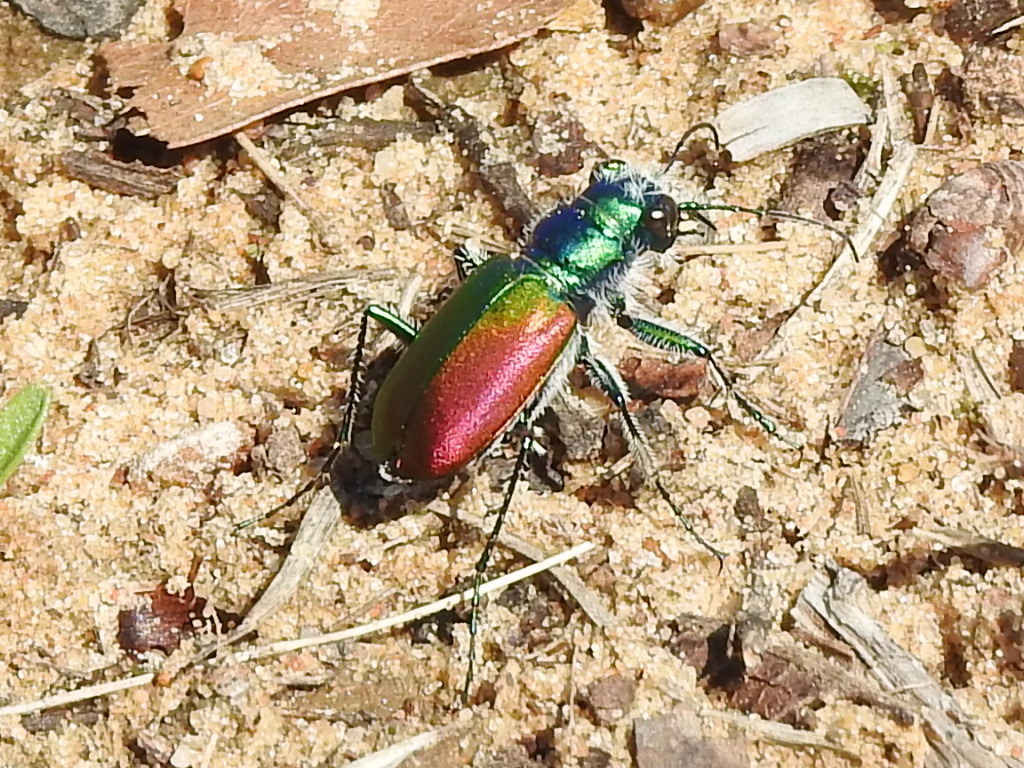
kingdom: Animalia
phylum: Arthropoda
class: Insecta
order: Coleoptera
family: Carabidae
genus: Cicindela
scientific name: Cicindela scutellaris
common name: Festive tiger beetle
